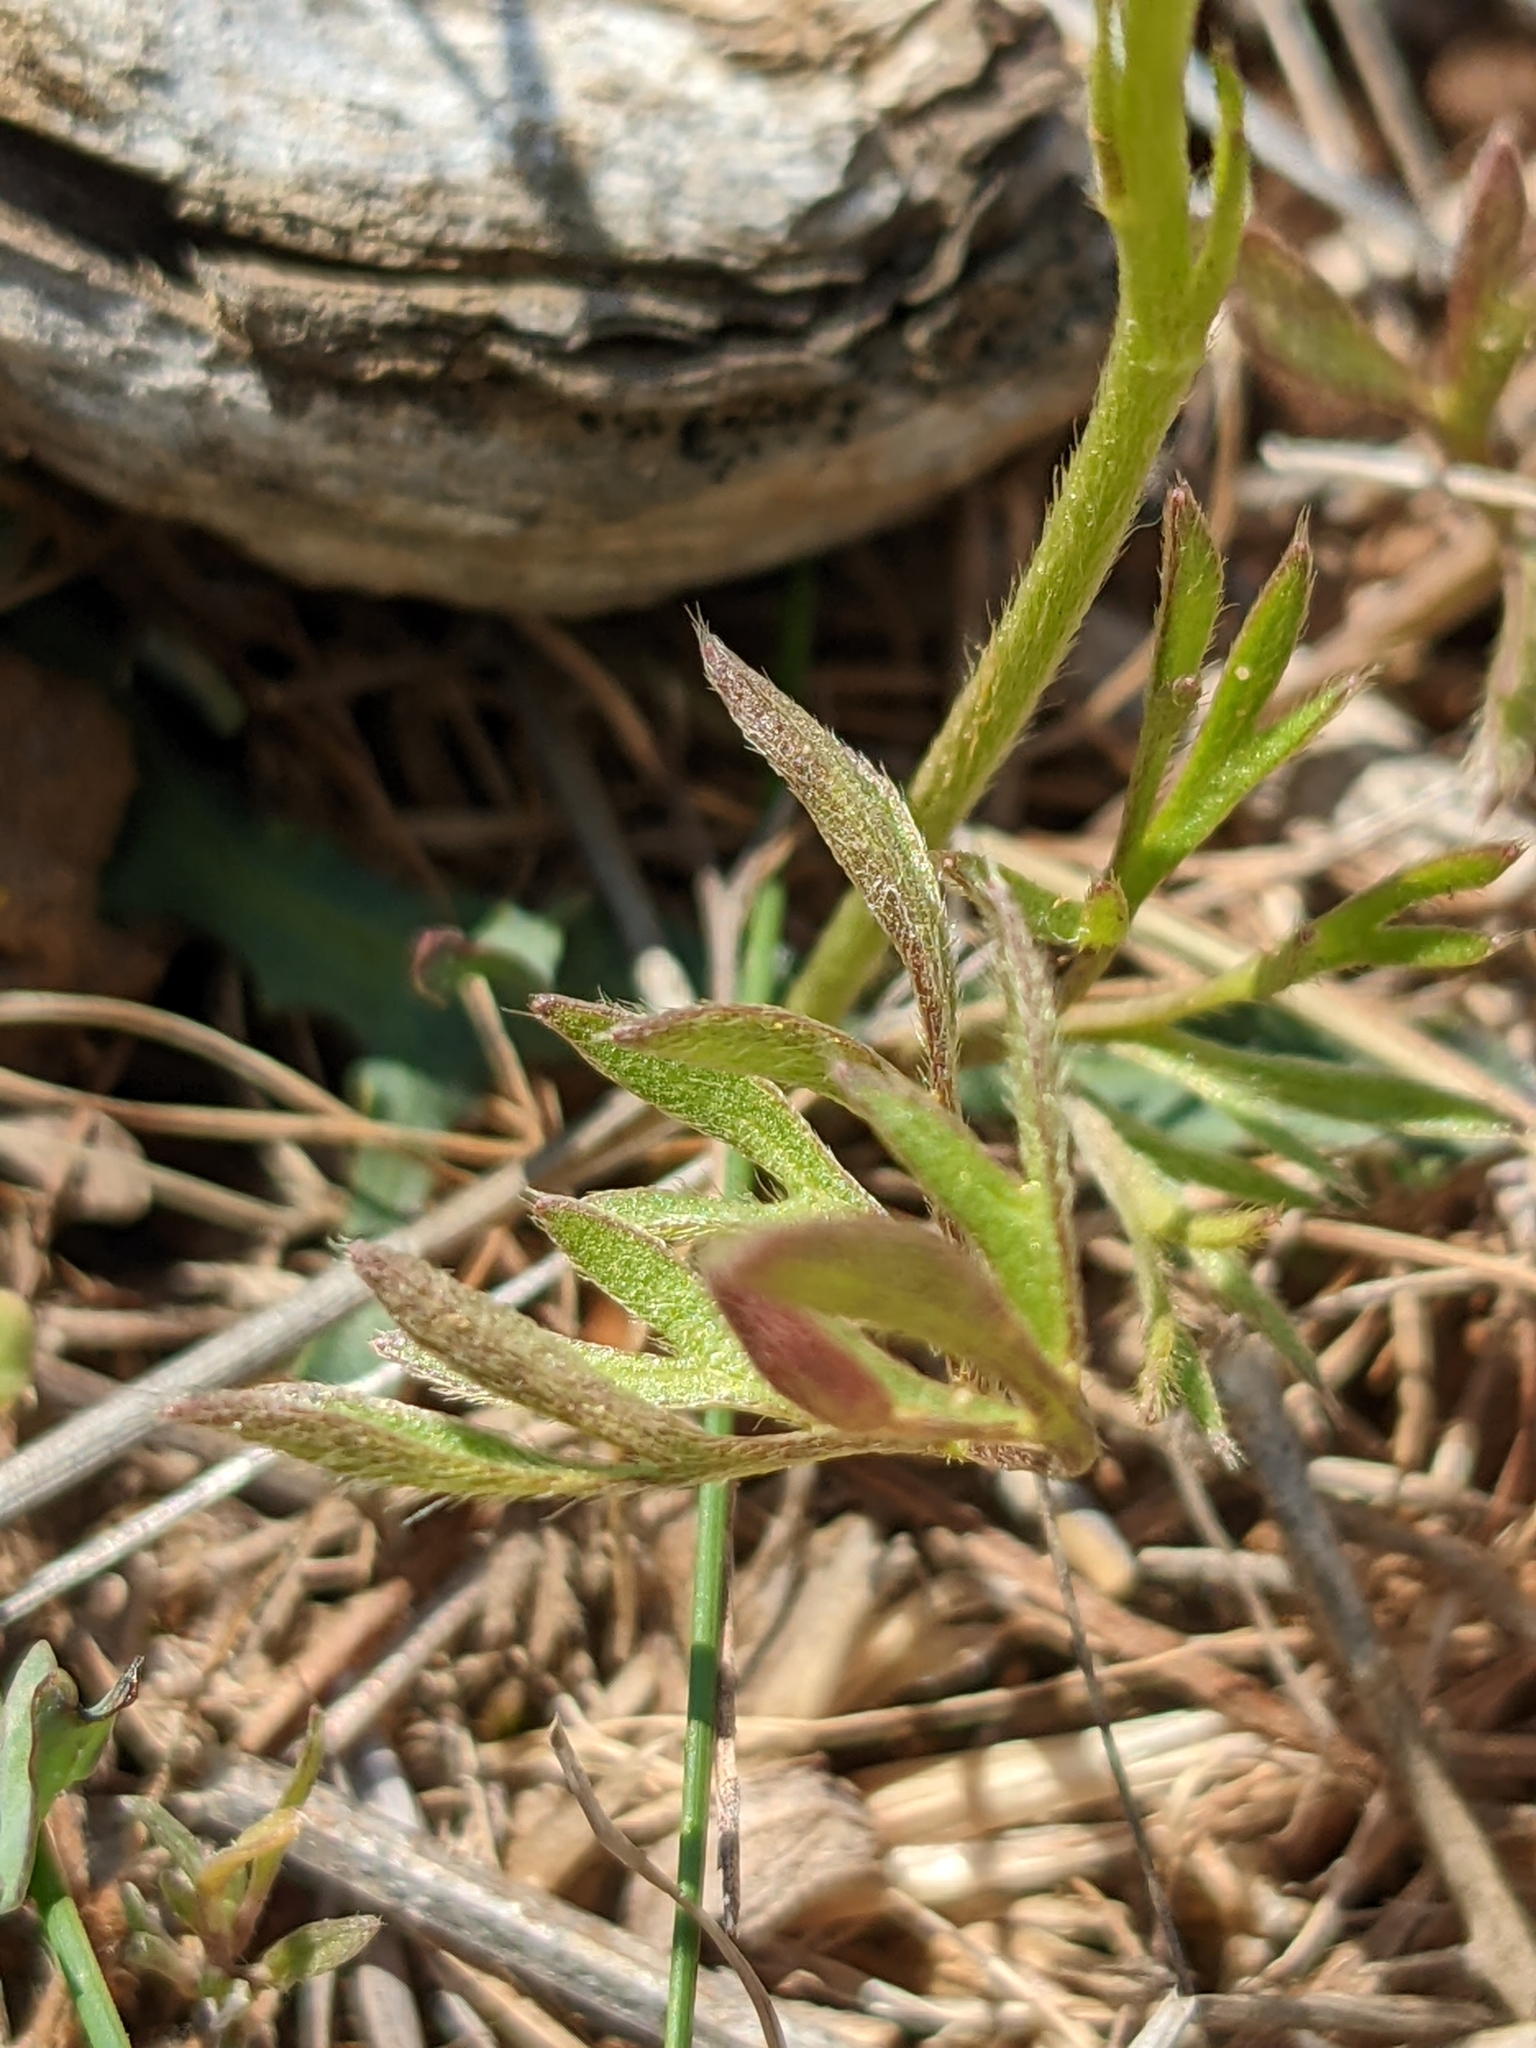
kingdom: Plantae
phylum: Tracheophyta
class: Magnoliopsida
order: Ranunculales
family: Ranunculaceae
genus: Ranunculus
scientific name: Ranunculus paludosus
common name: Jersey buttercup
